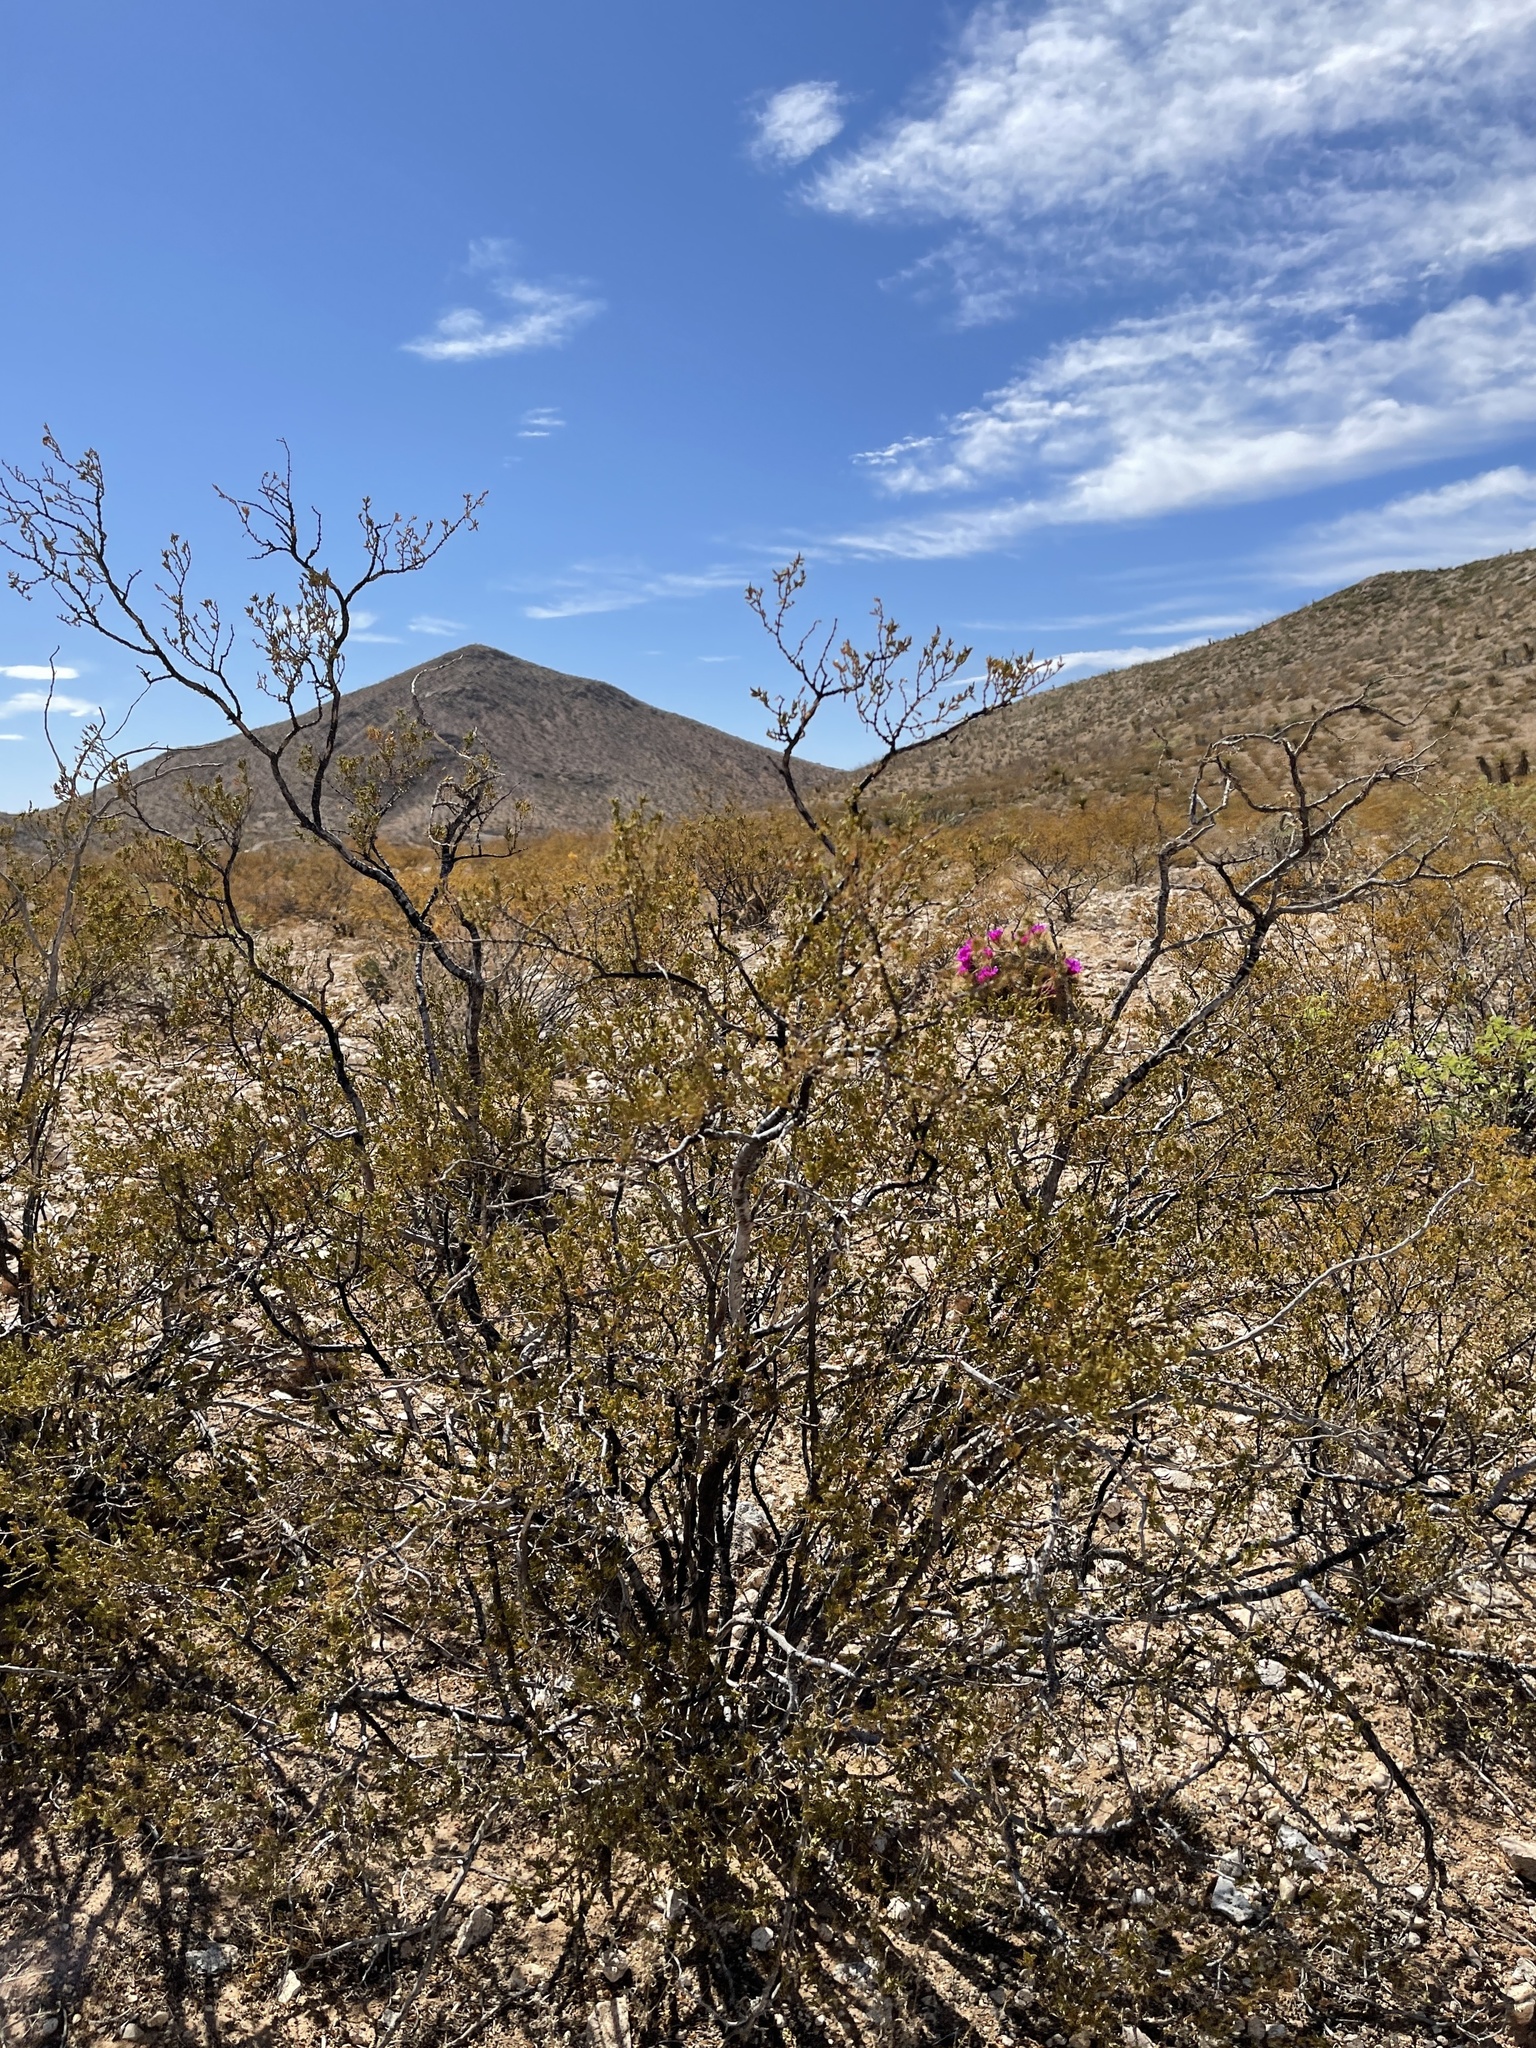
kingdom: Plantae
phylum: Tracheophyta
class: Magnoliopsida
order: Zygophyllales
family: Zygophyllaceae
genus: Larrea
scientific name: Larrea tridentata
